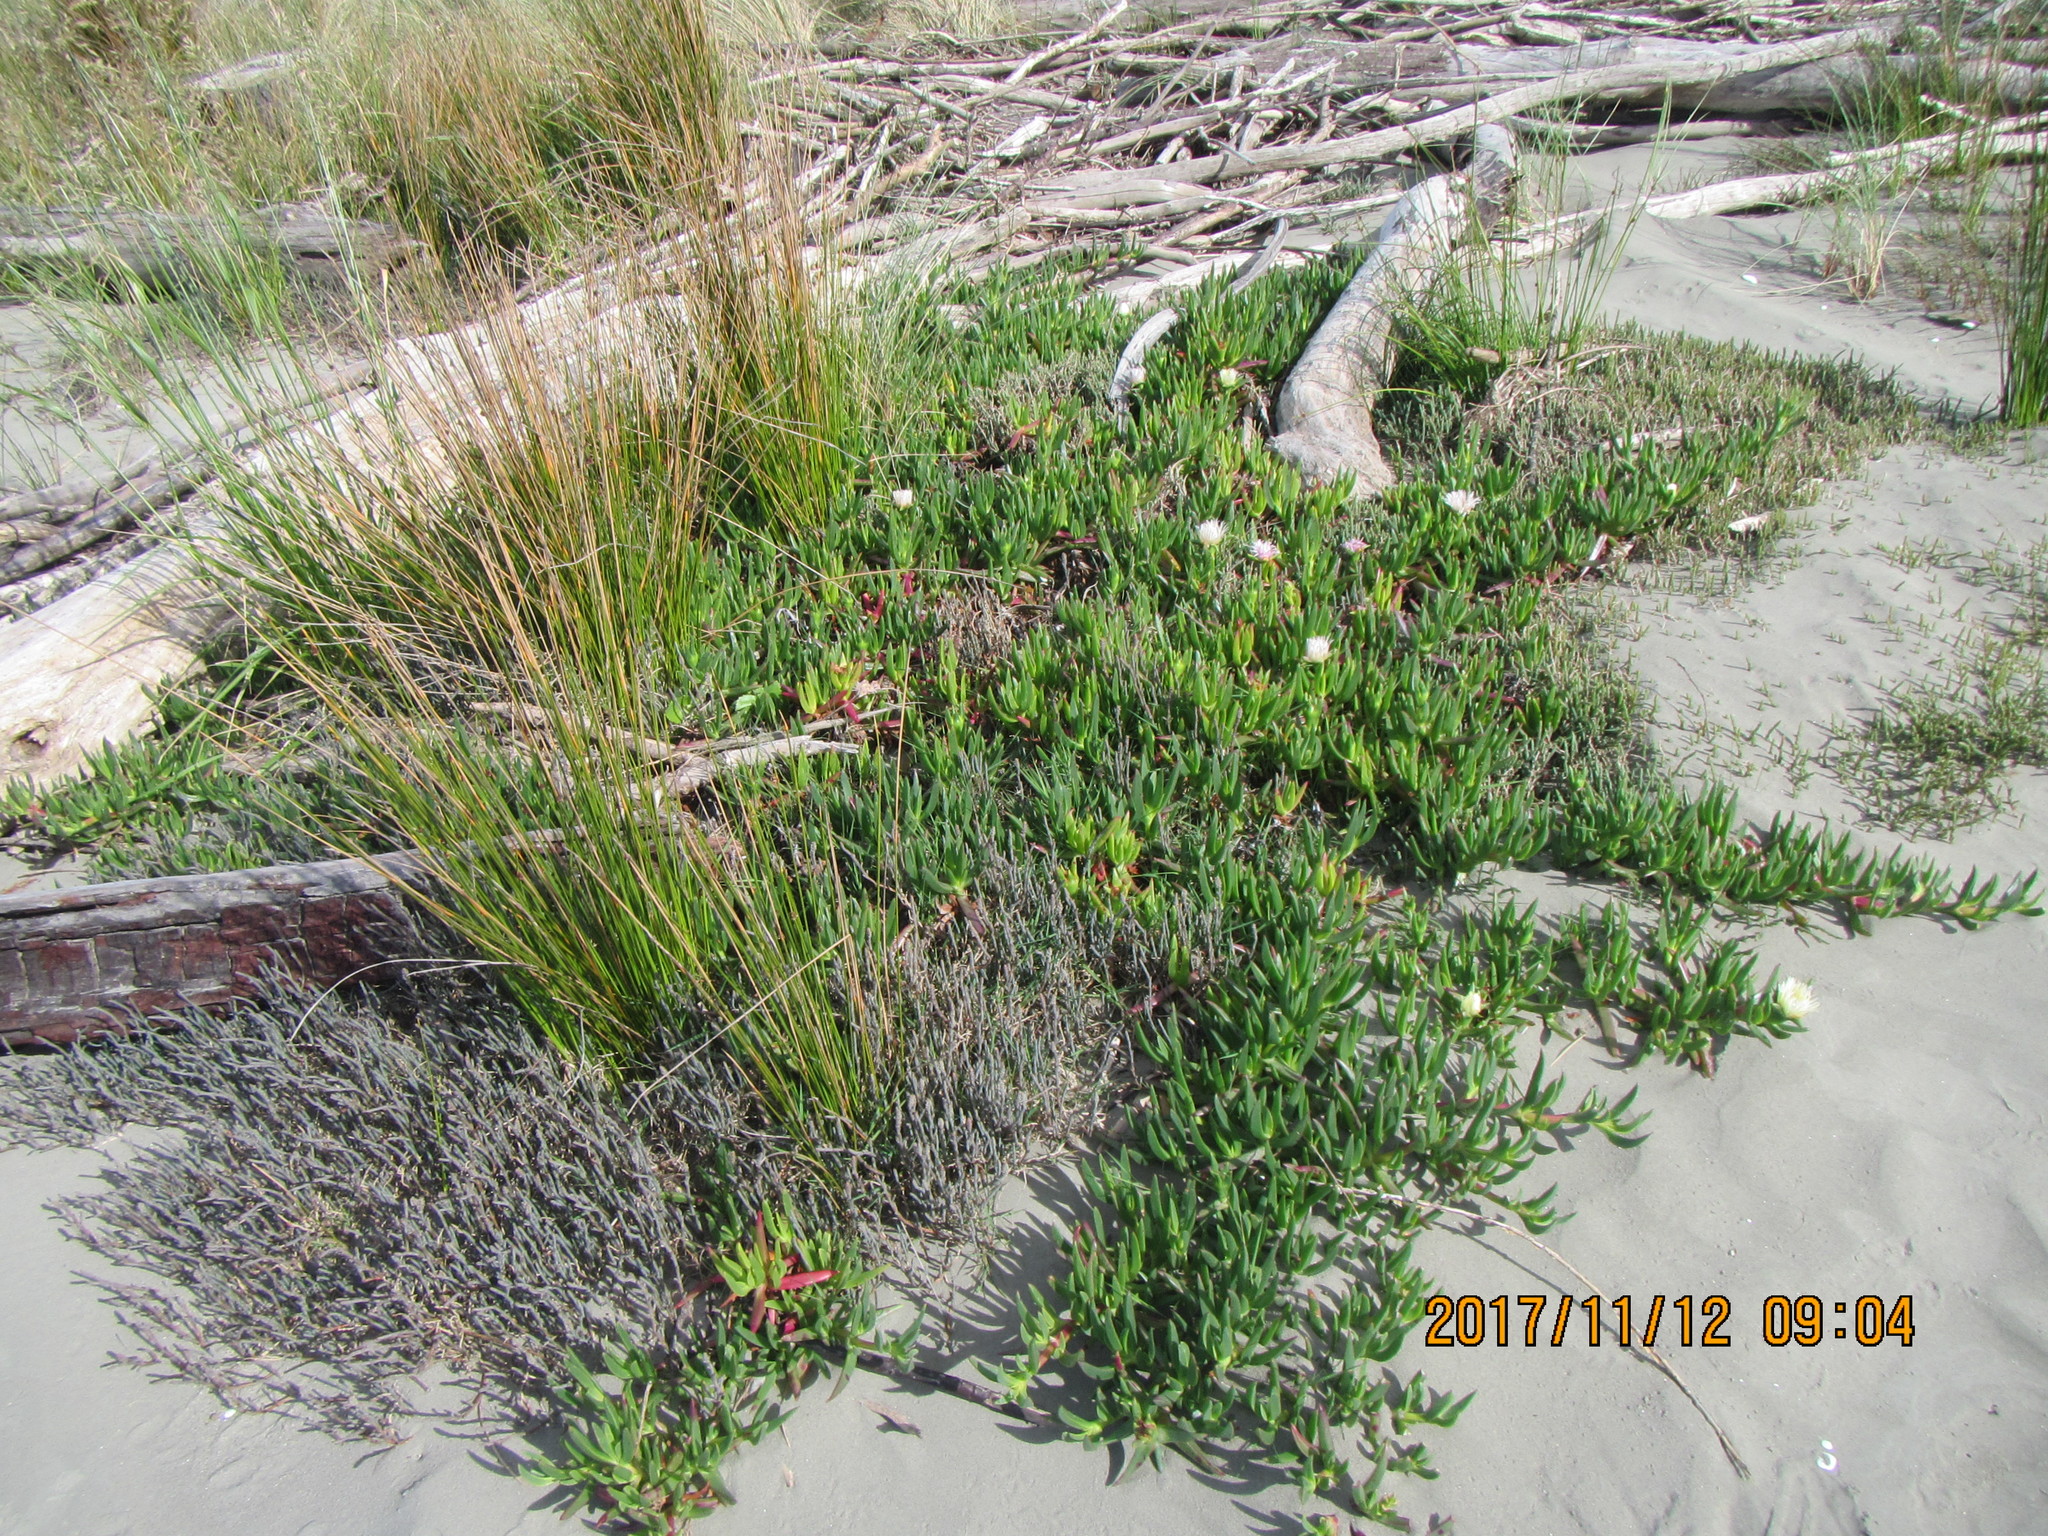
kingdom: Plantae
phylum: Tracheophyta
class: Magnoliopsida
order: Caryophyllales
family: Aizoaceae
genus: Carpobrotus
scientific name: Carpobrotus edulis
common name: Hottentot-fig
